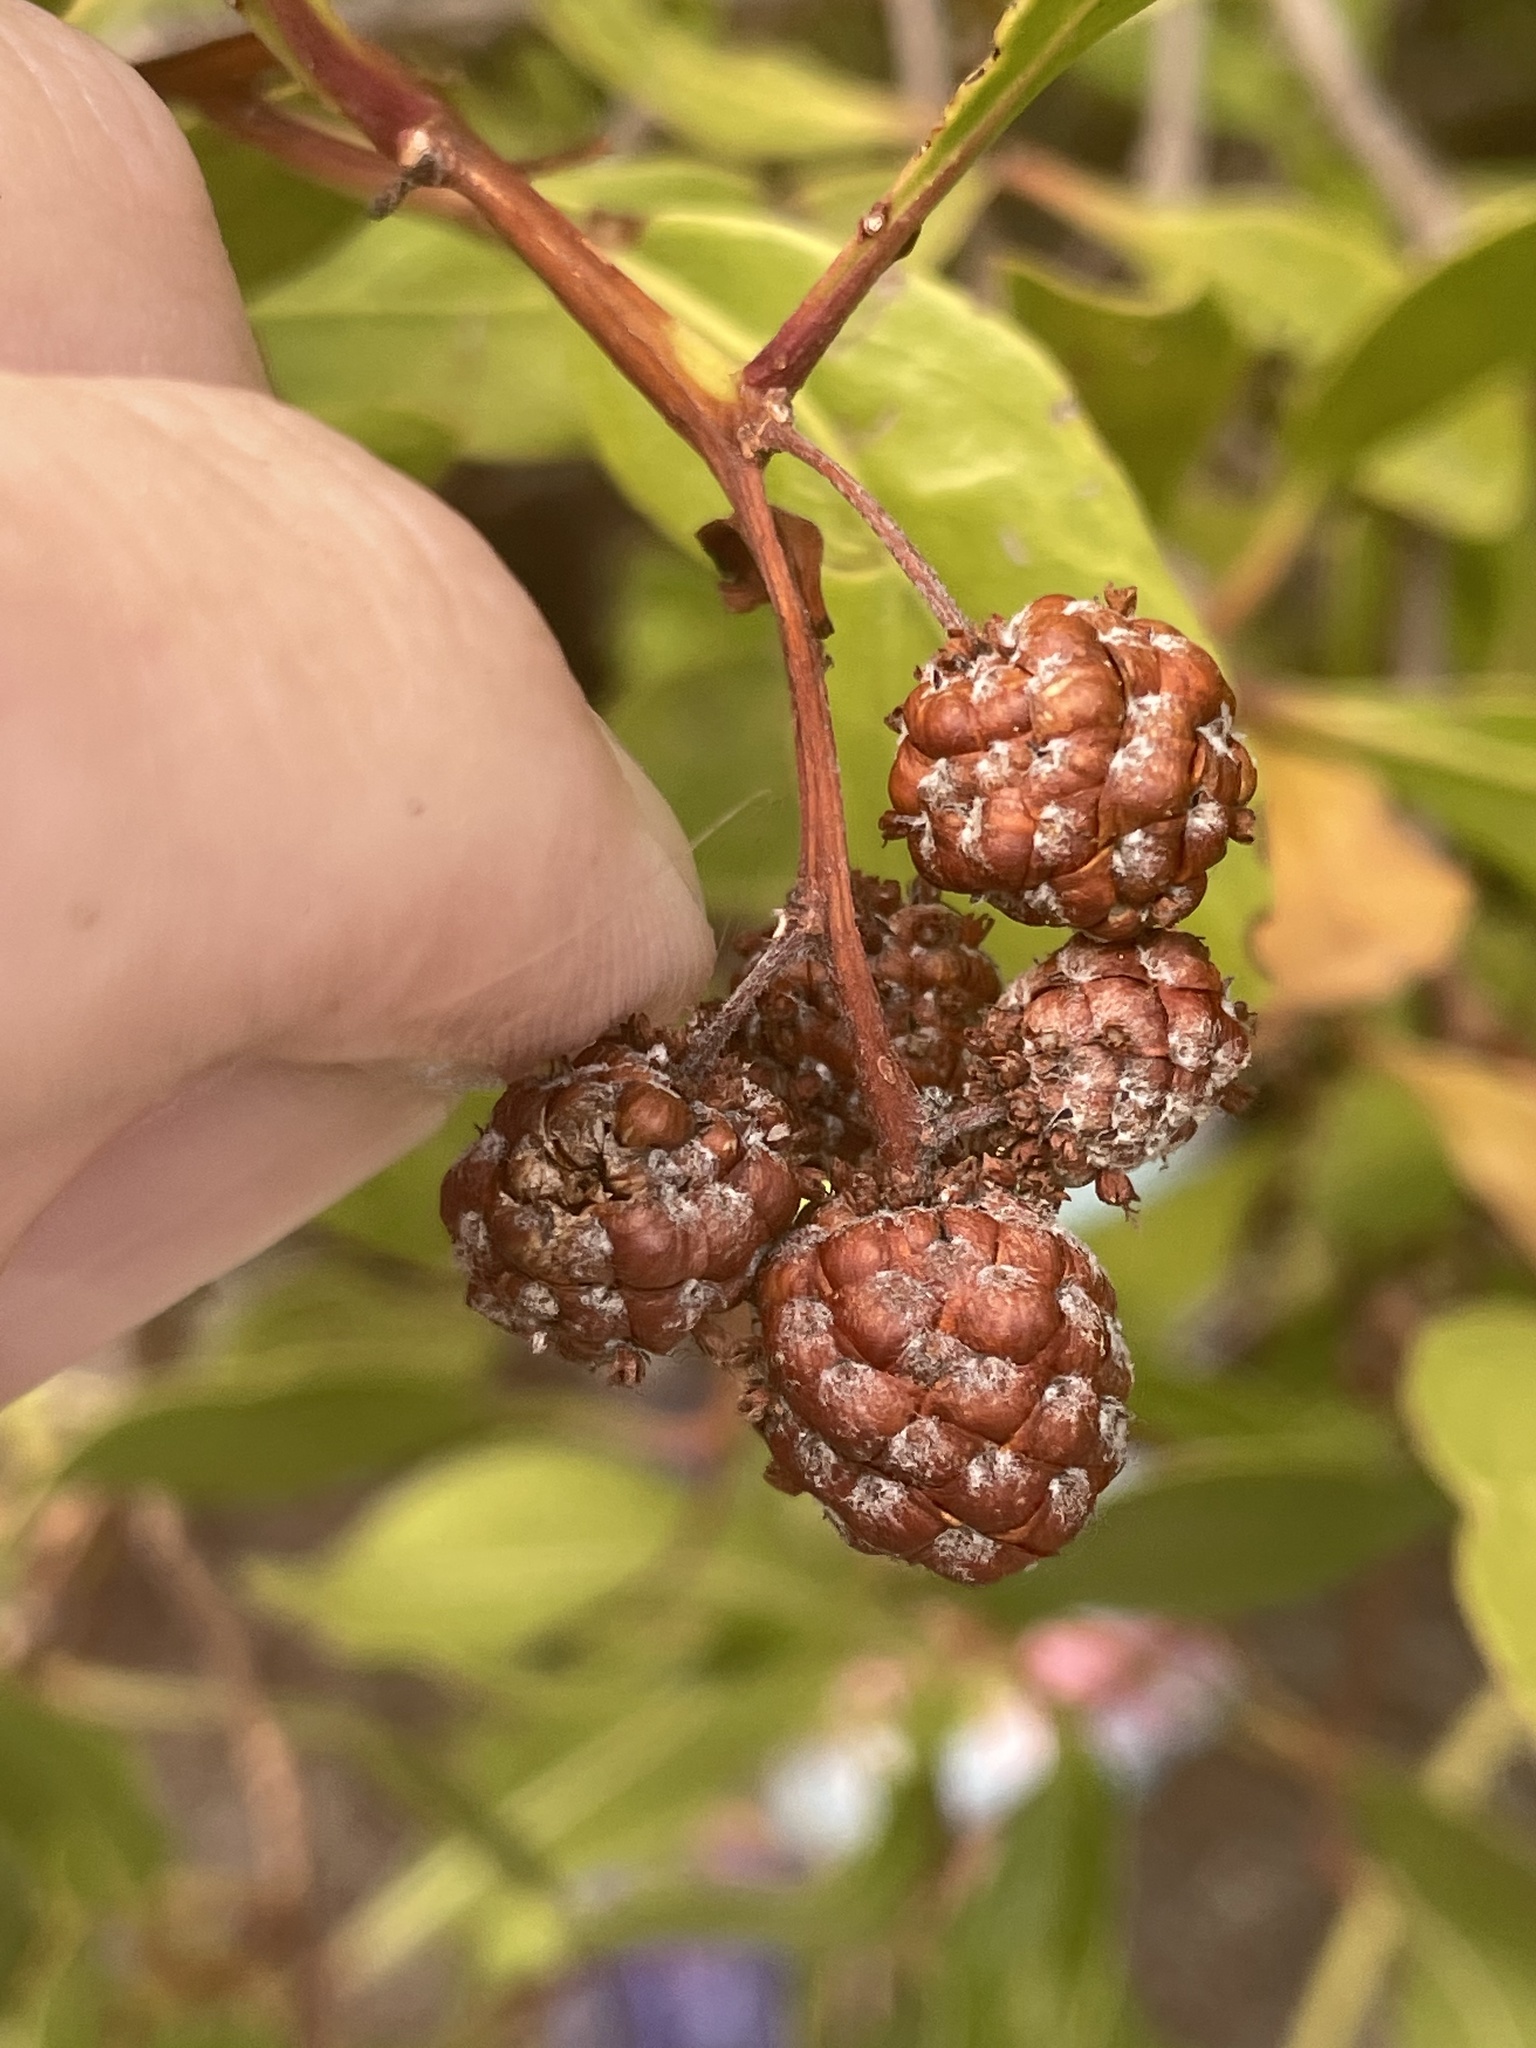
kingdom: Plantae
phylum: Tracheophyta
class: Magnoliopsida
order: Myrtales
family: Combretaceae
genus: Conocarpus
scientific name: Conocarpus erectus
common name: Button mangrove
